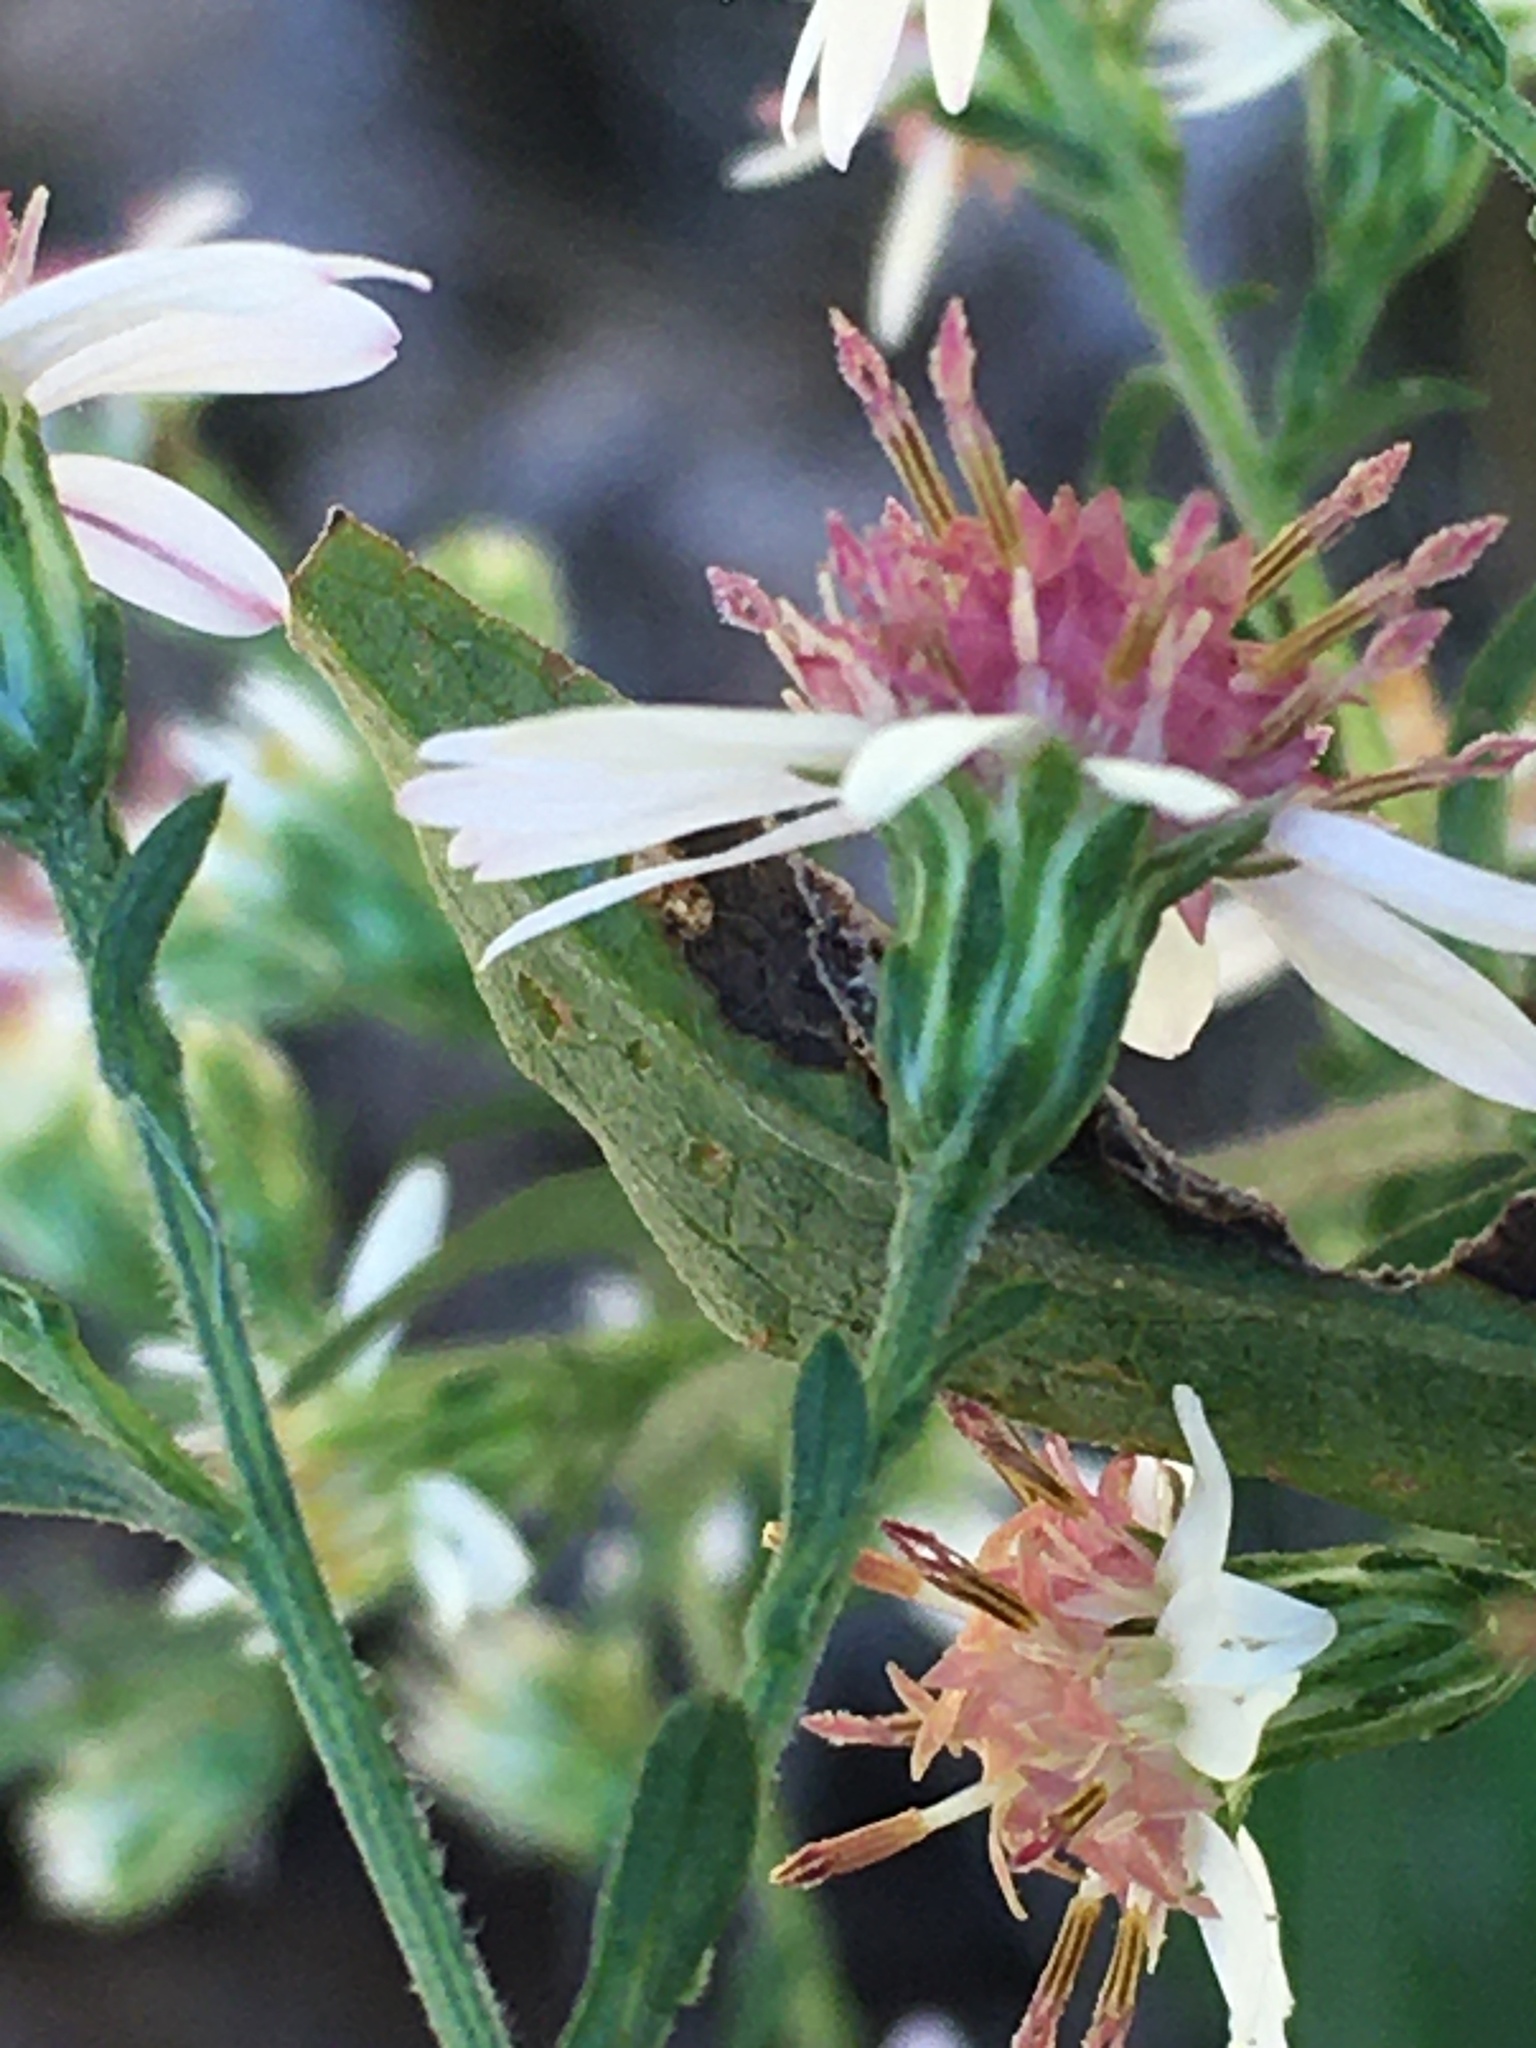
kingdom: Plantae
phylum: Tracheophyta
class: Magnoliopsida
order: Asterales
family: Asteraceae
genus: Symphyotrichum
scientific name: Symphyotrichum lateriflorum
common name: Calico aster
